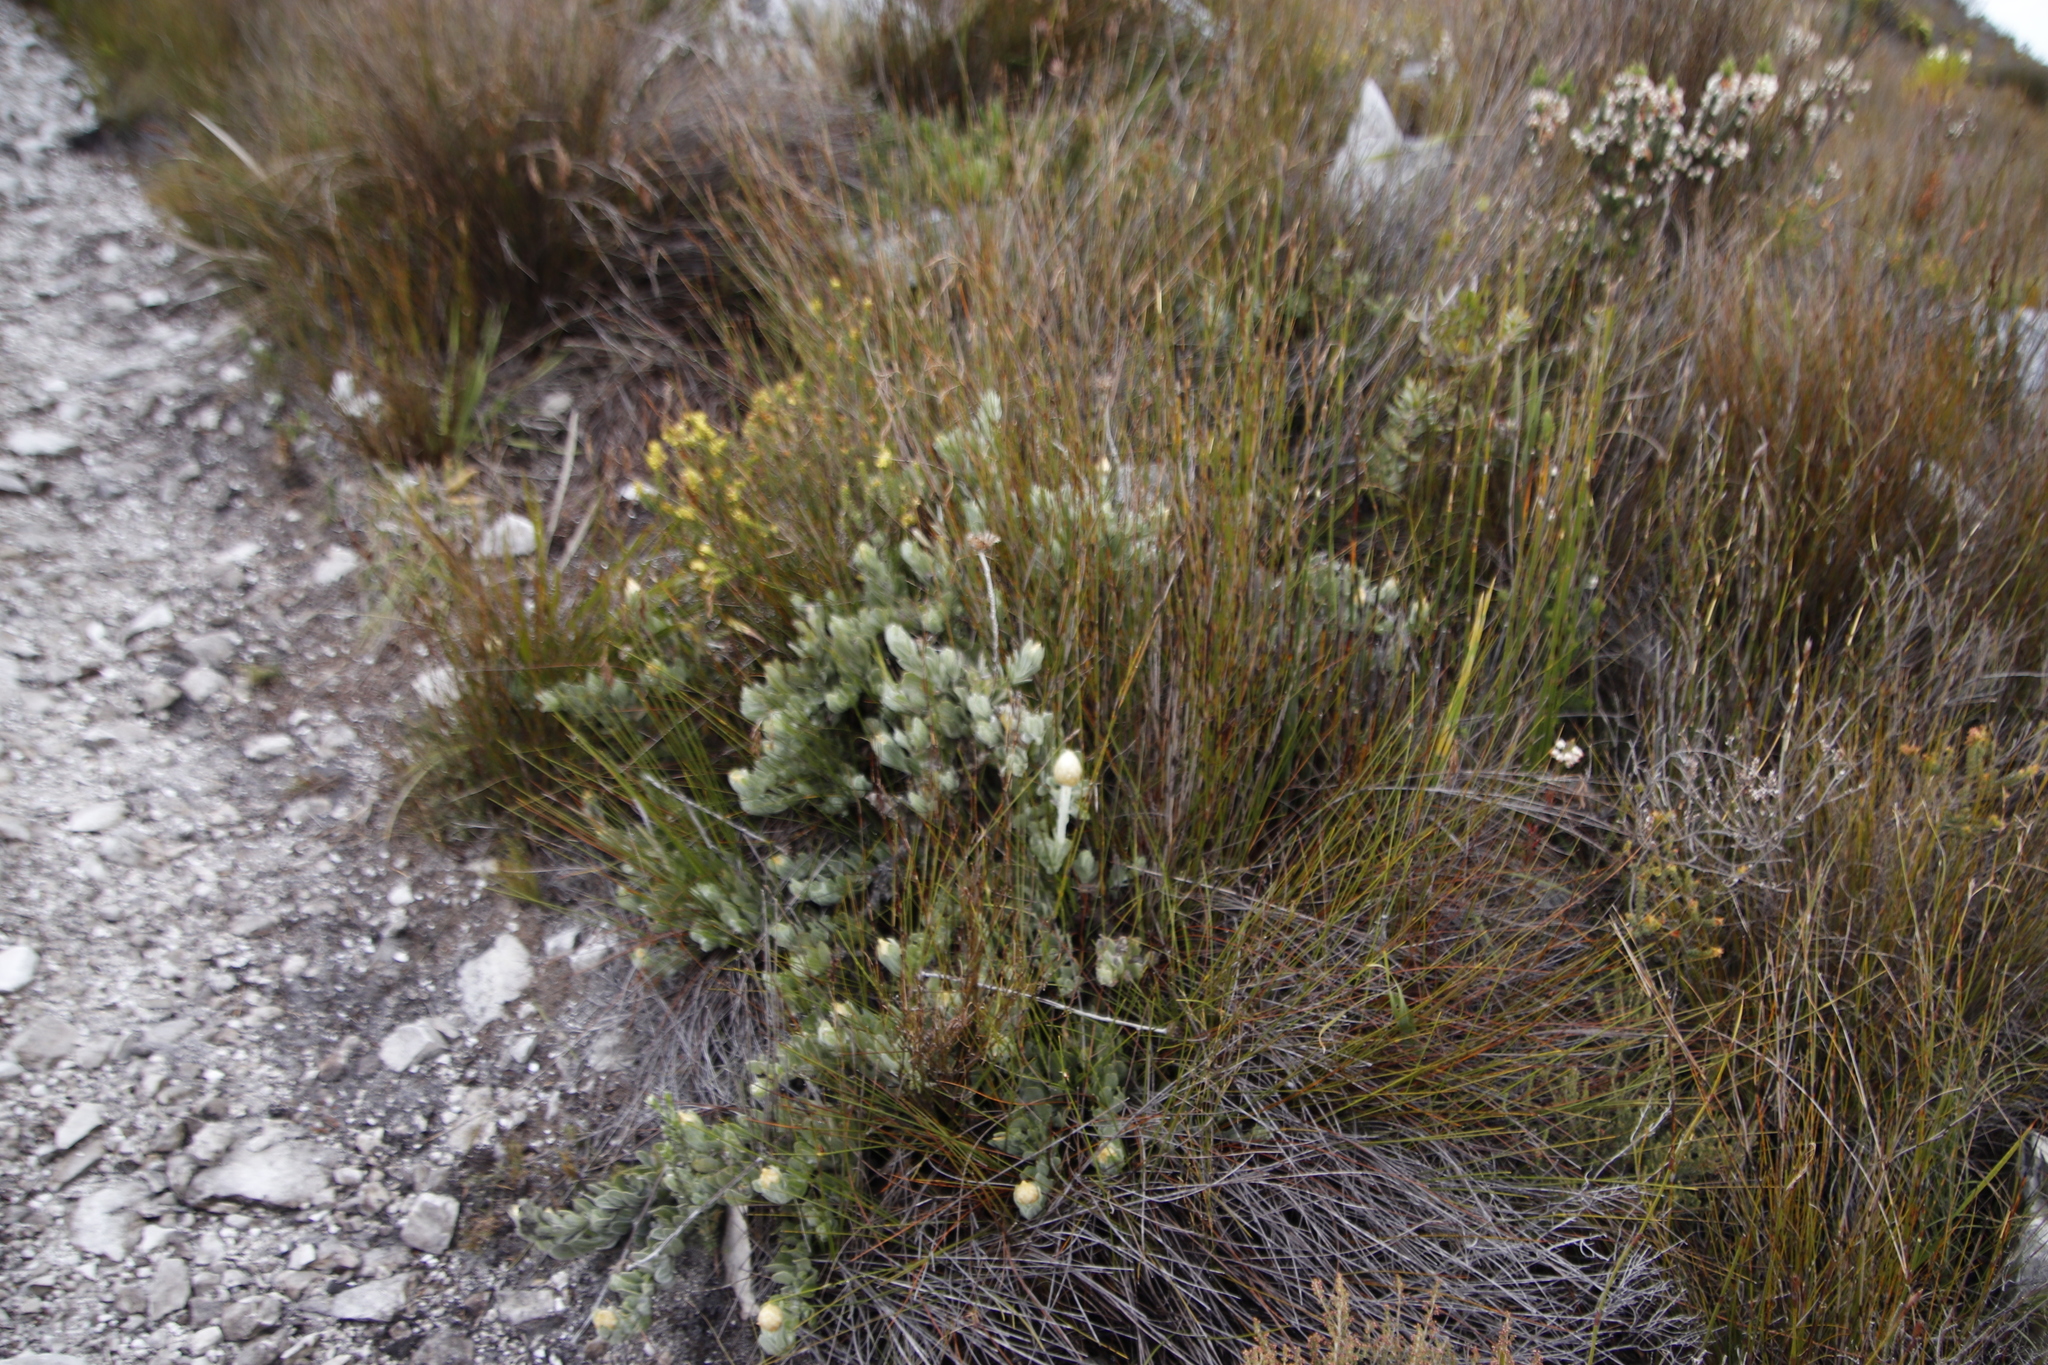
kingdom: Plantae
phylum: Tracheophyta
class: Magnoliopsida
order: Asterales
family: Asteraceae
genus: Syncarpha
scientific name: Syncarpha speciosissima
